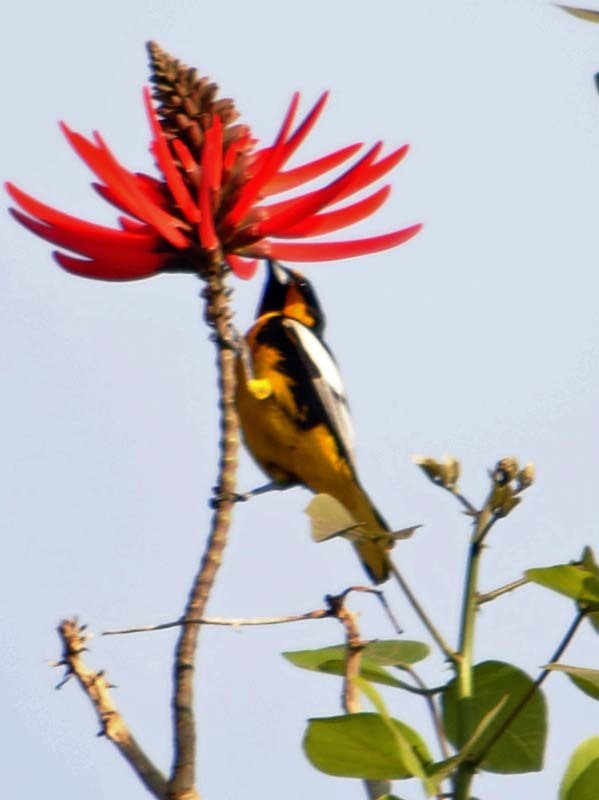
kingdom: Animalia
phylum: Chordata
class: Aves
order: Passeriformes
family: Icteridae
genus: Icterus
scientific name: Icterus abeillei
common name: Black-backed oriole
